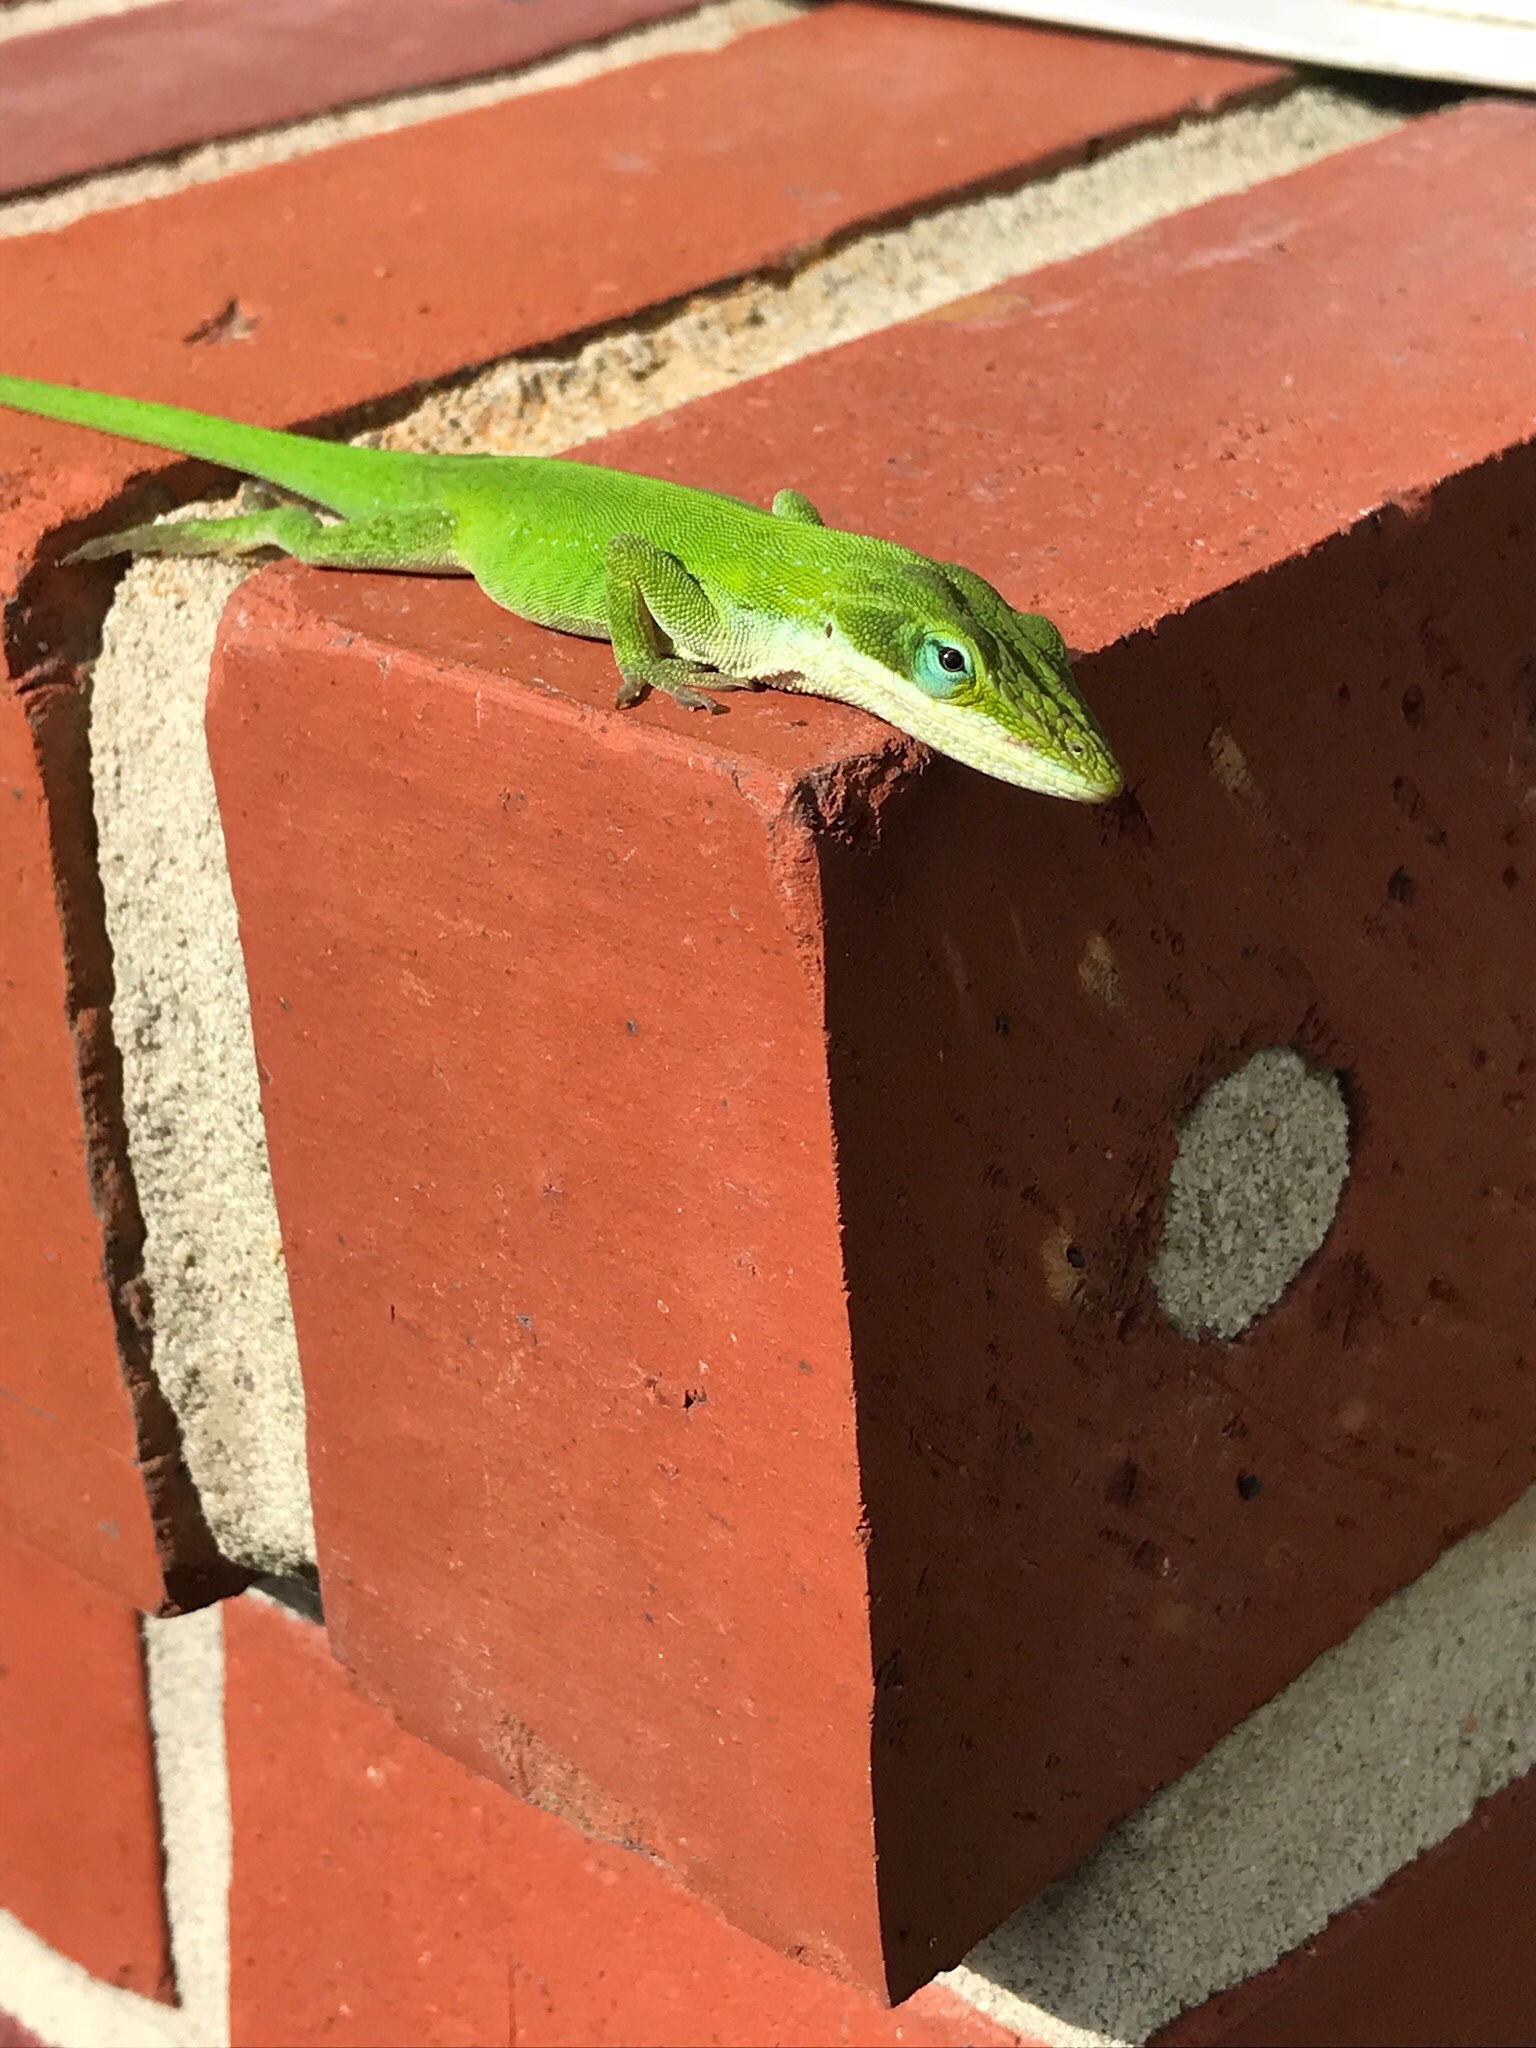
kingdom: Animalia
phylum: Chordata
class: Squamata
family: Dactyloidae
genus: Anolis
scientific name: Anolis carolinensis
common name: Green anole
